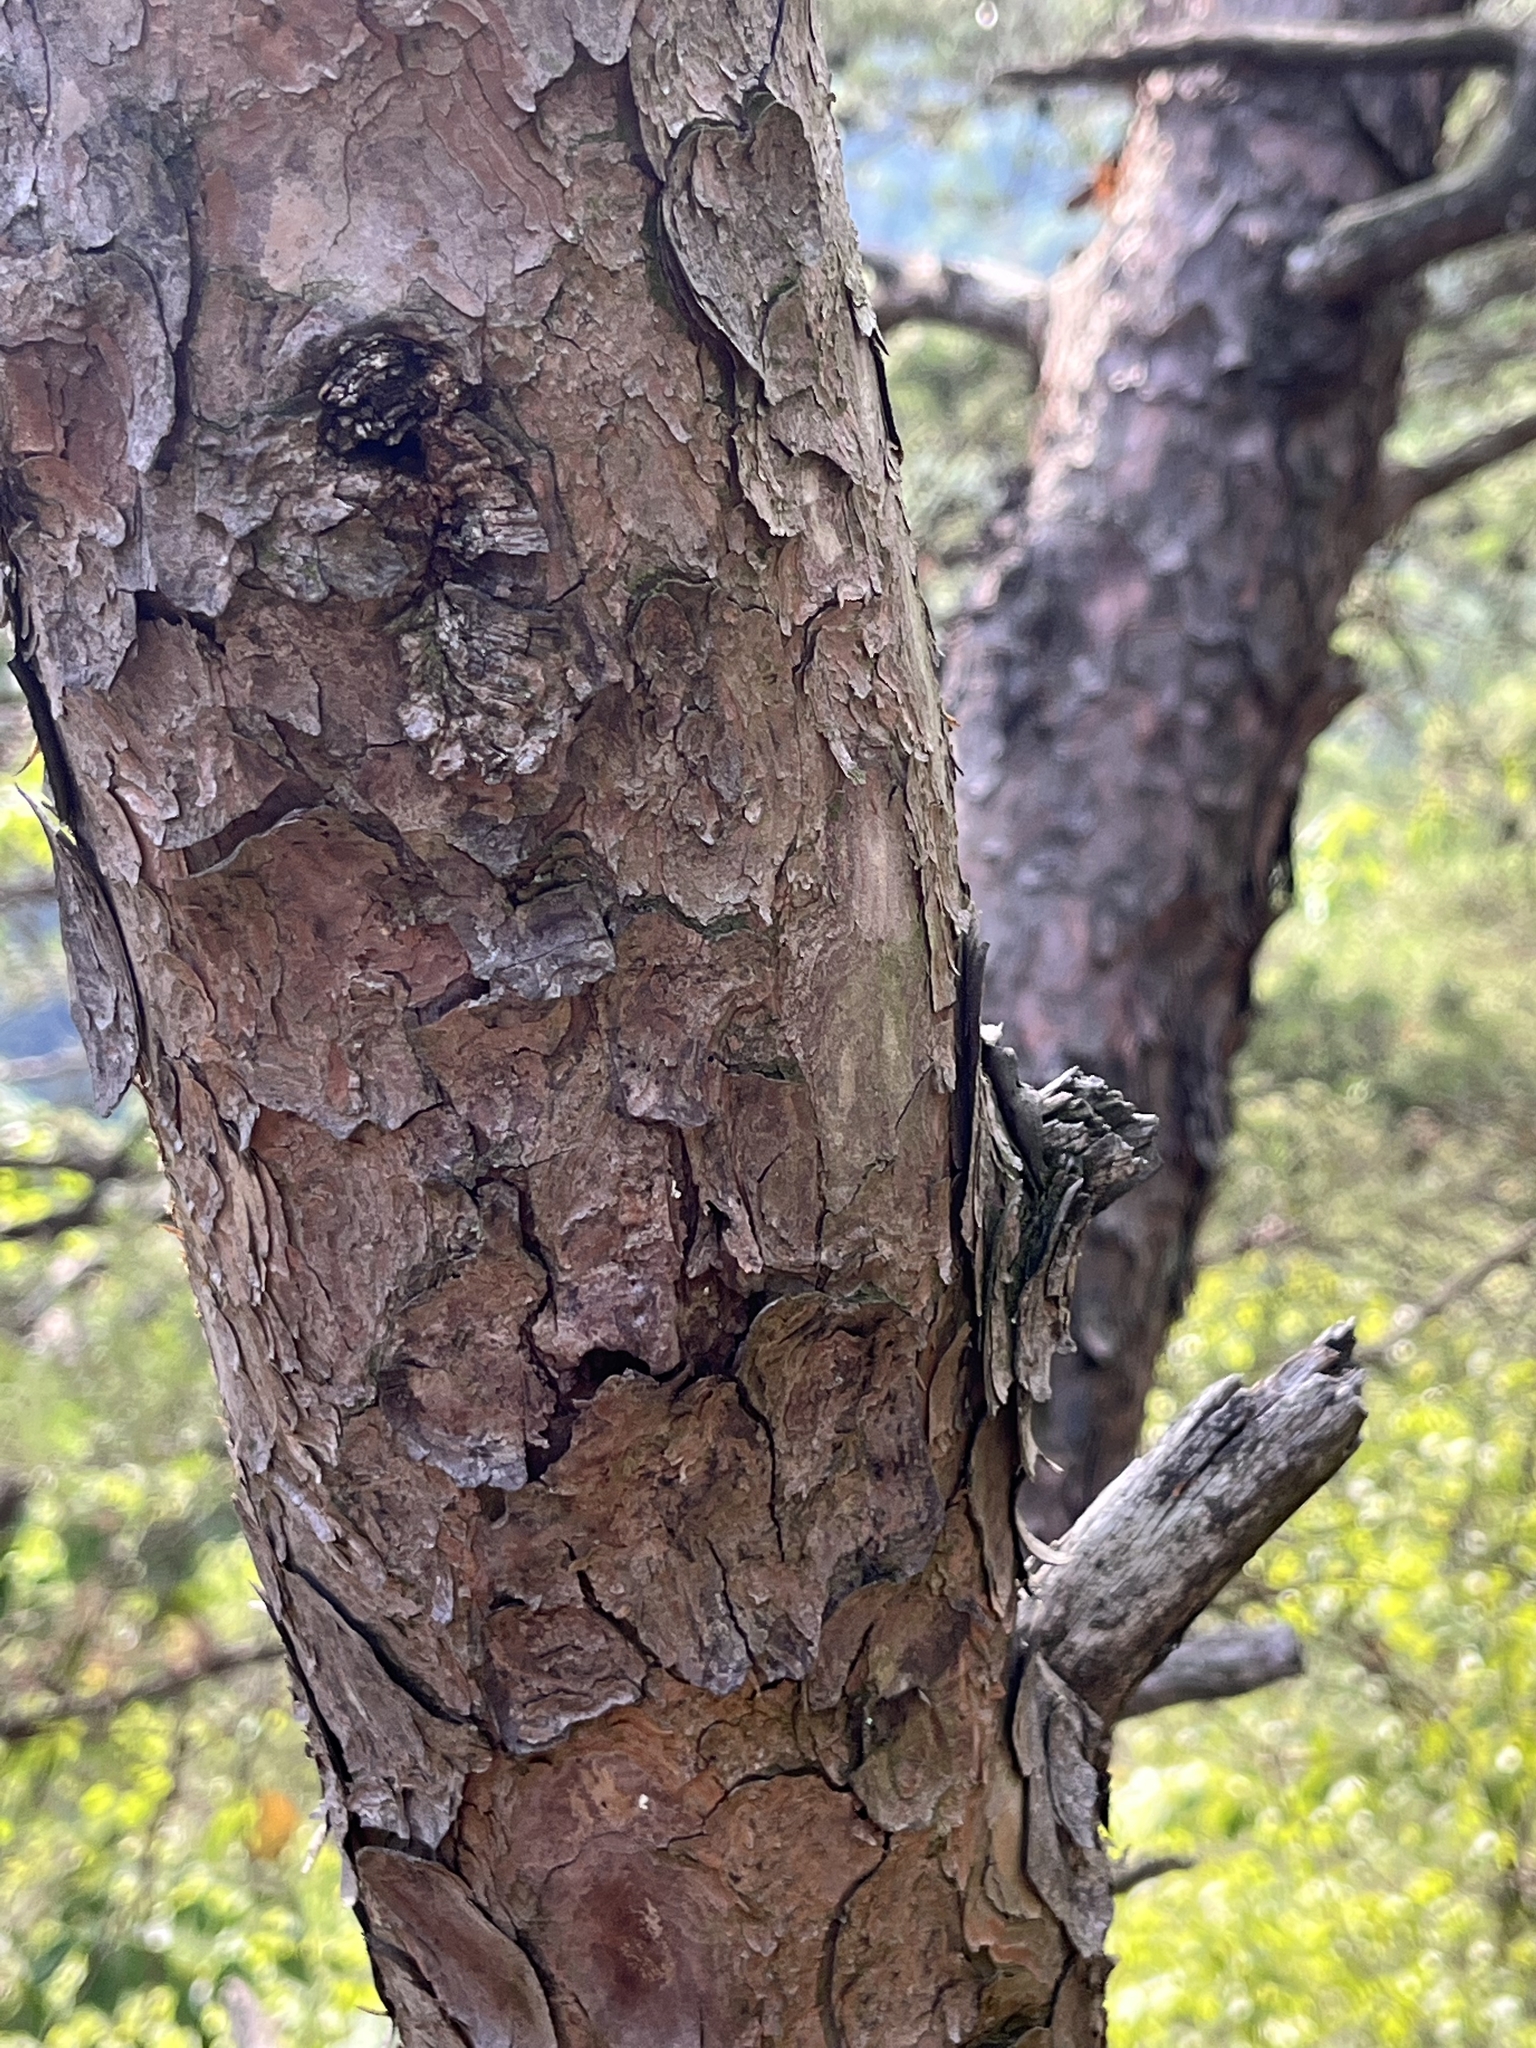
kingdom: Plantae
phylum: Tracheophyta
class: Pinopsida
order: Pinales
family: Pinaceae
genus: Pinus
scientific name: Pinus virginiana
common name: Scrub pine
